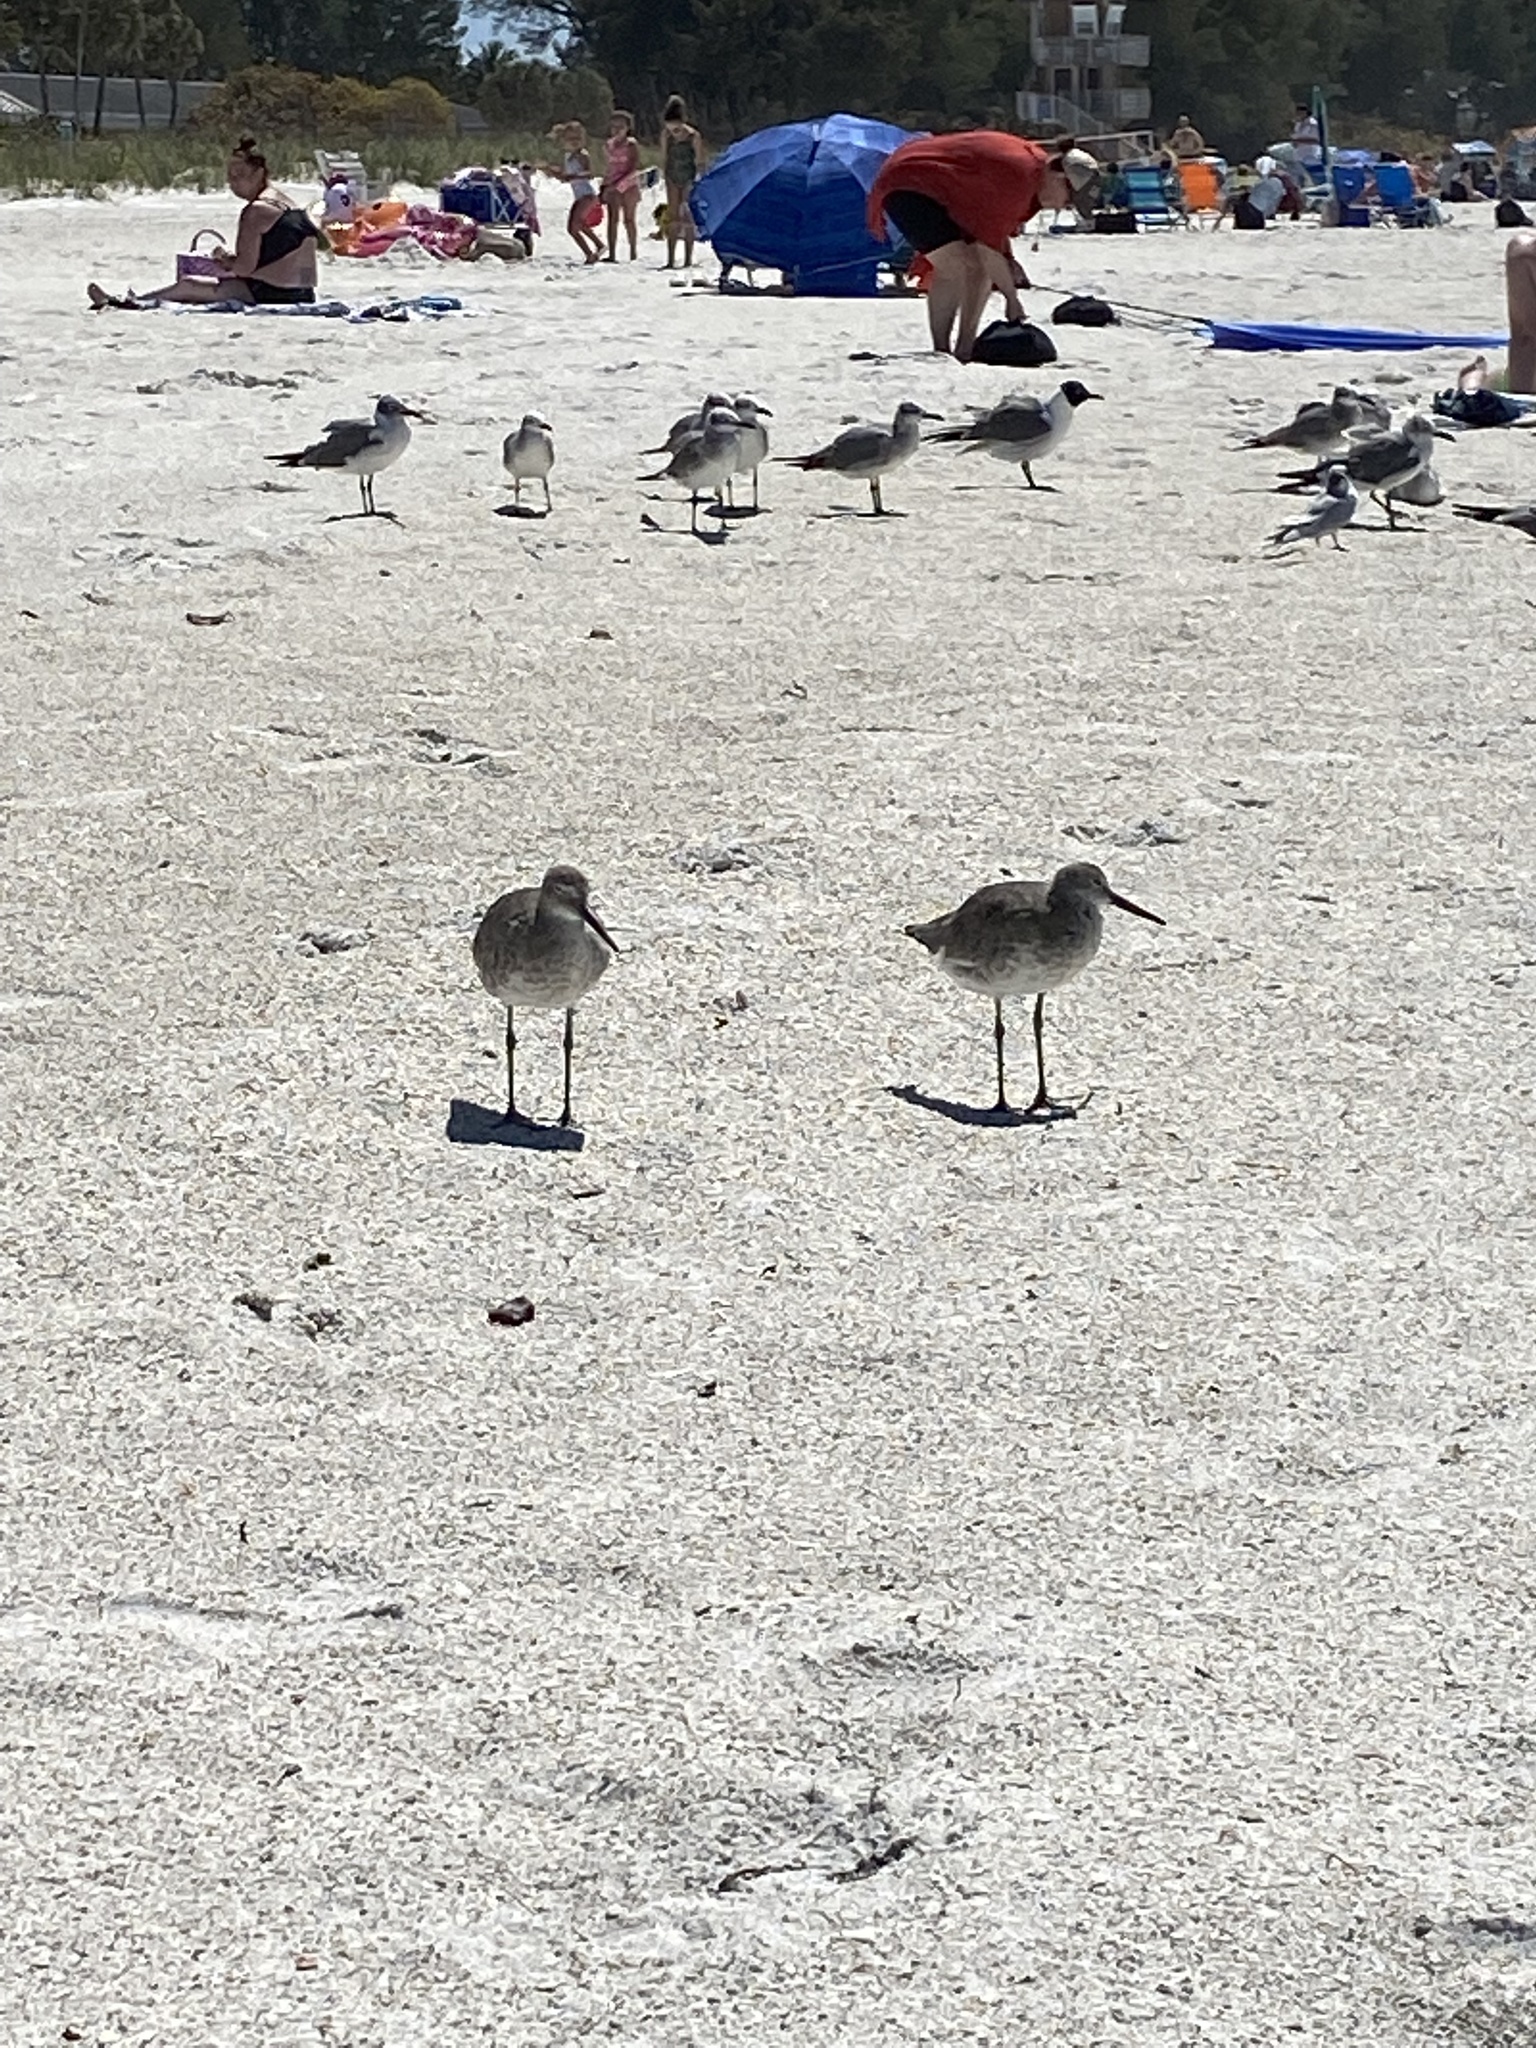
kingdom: Animalia
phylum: Chordata
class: Aves
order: Charadriiformes
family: Scolopacidae
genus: Tringa
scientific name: Tringa semipalmata
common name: Willet
